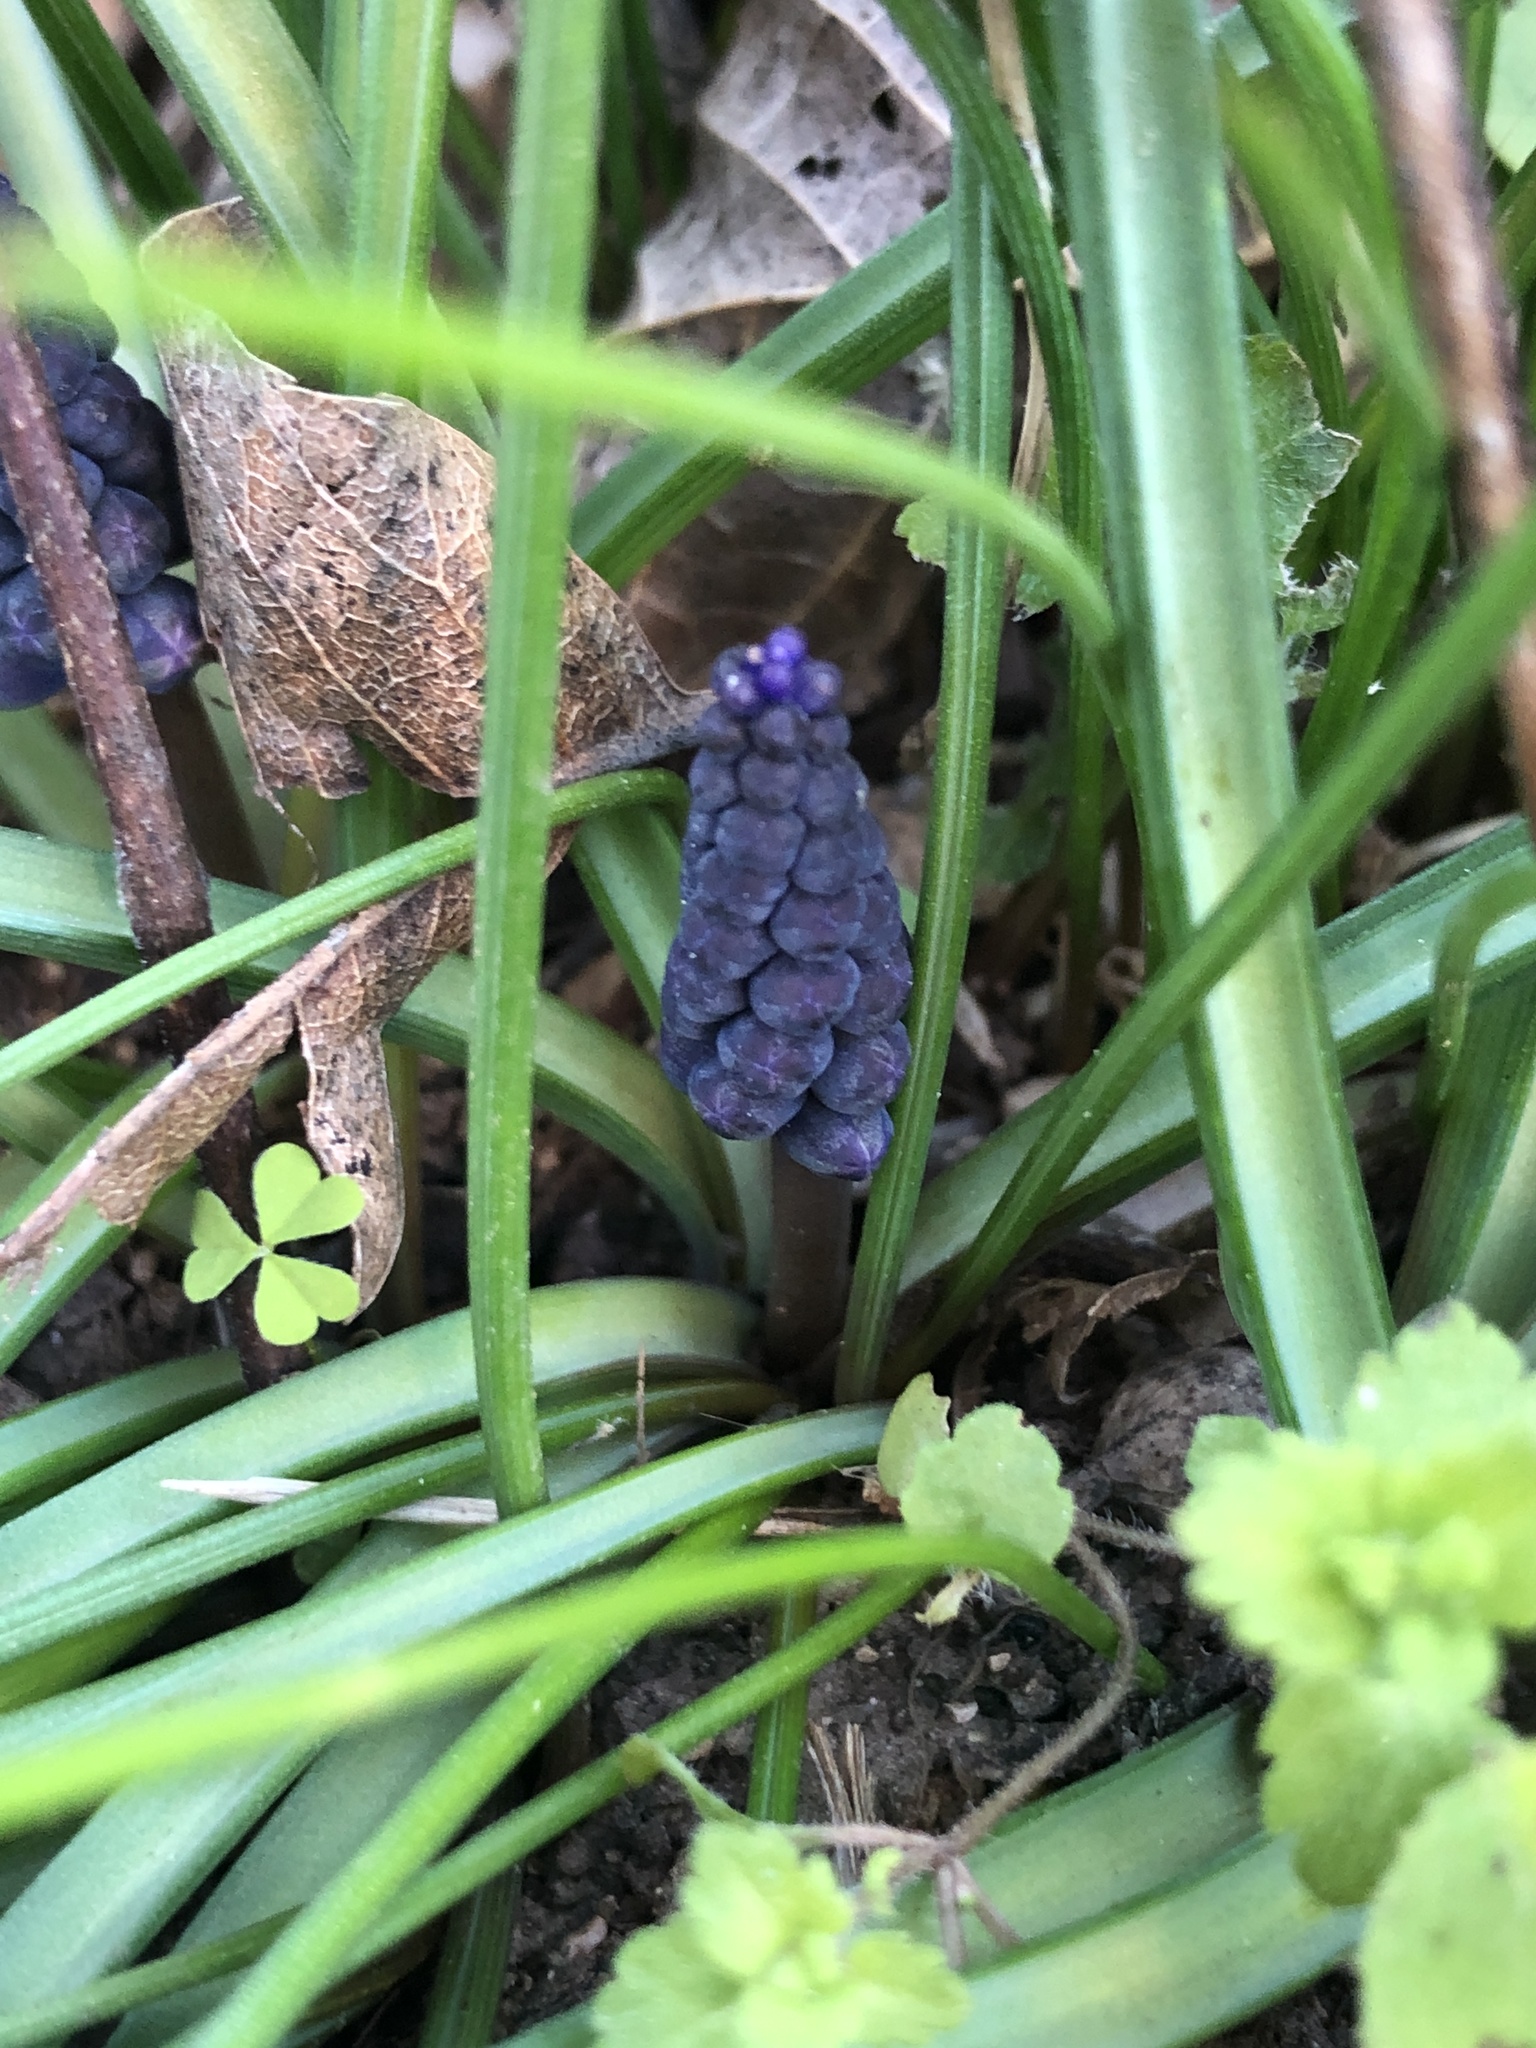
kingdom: Plantae
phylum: Tracheophyta
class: Liliopsida
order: Asparagales
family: Asparagaceae
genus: Muscari
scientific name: Muscari neglectum
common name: Grape-hyacinth
